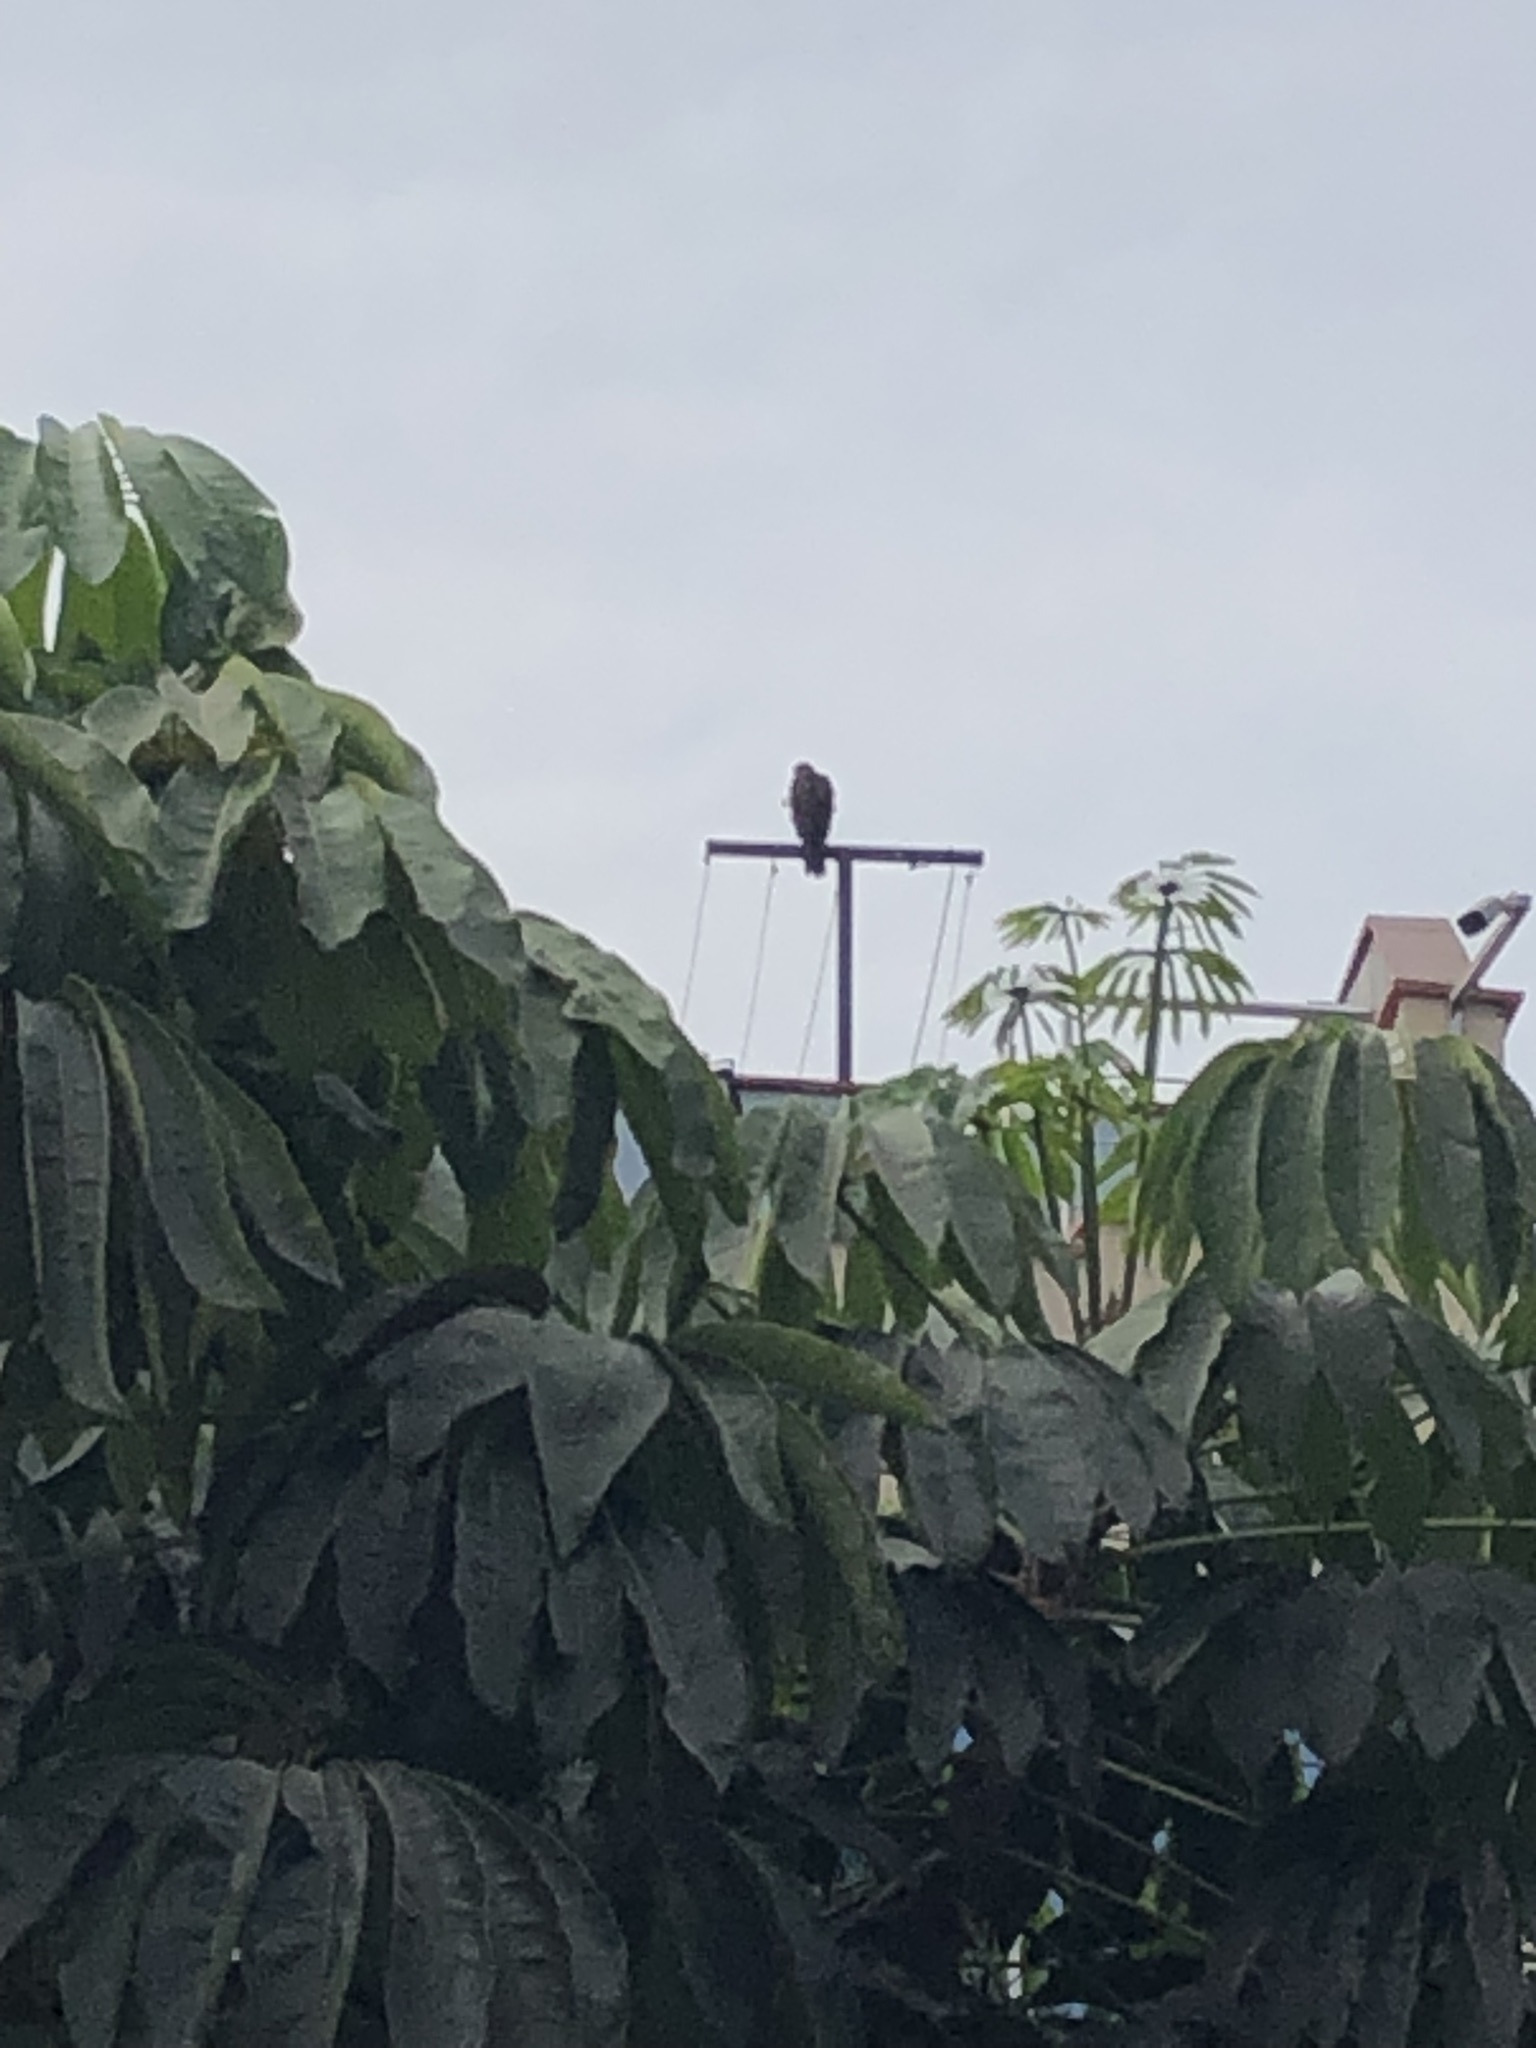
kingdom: Animalia
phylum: Chordata
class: Aves
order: Accipitriformes
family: Accipitridae
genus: Parabuteo
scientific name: Parabuteo unicinctus
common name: Harris's hawk
